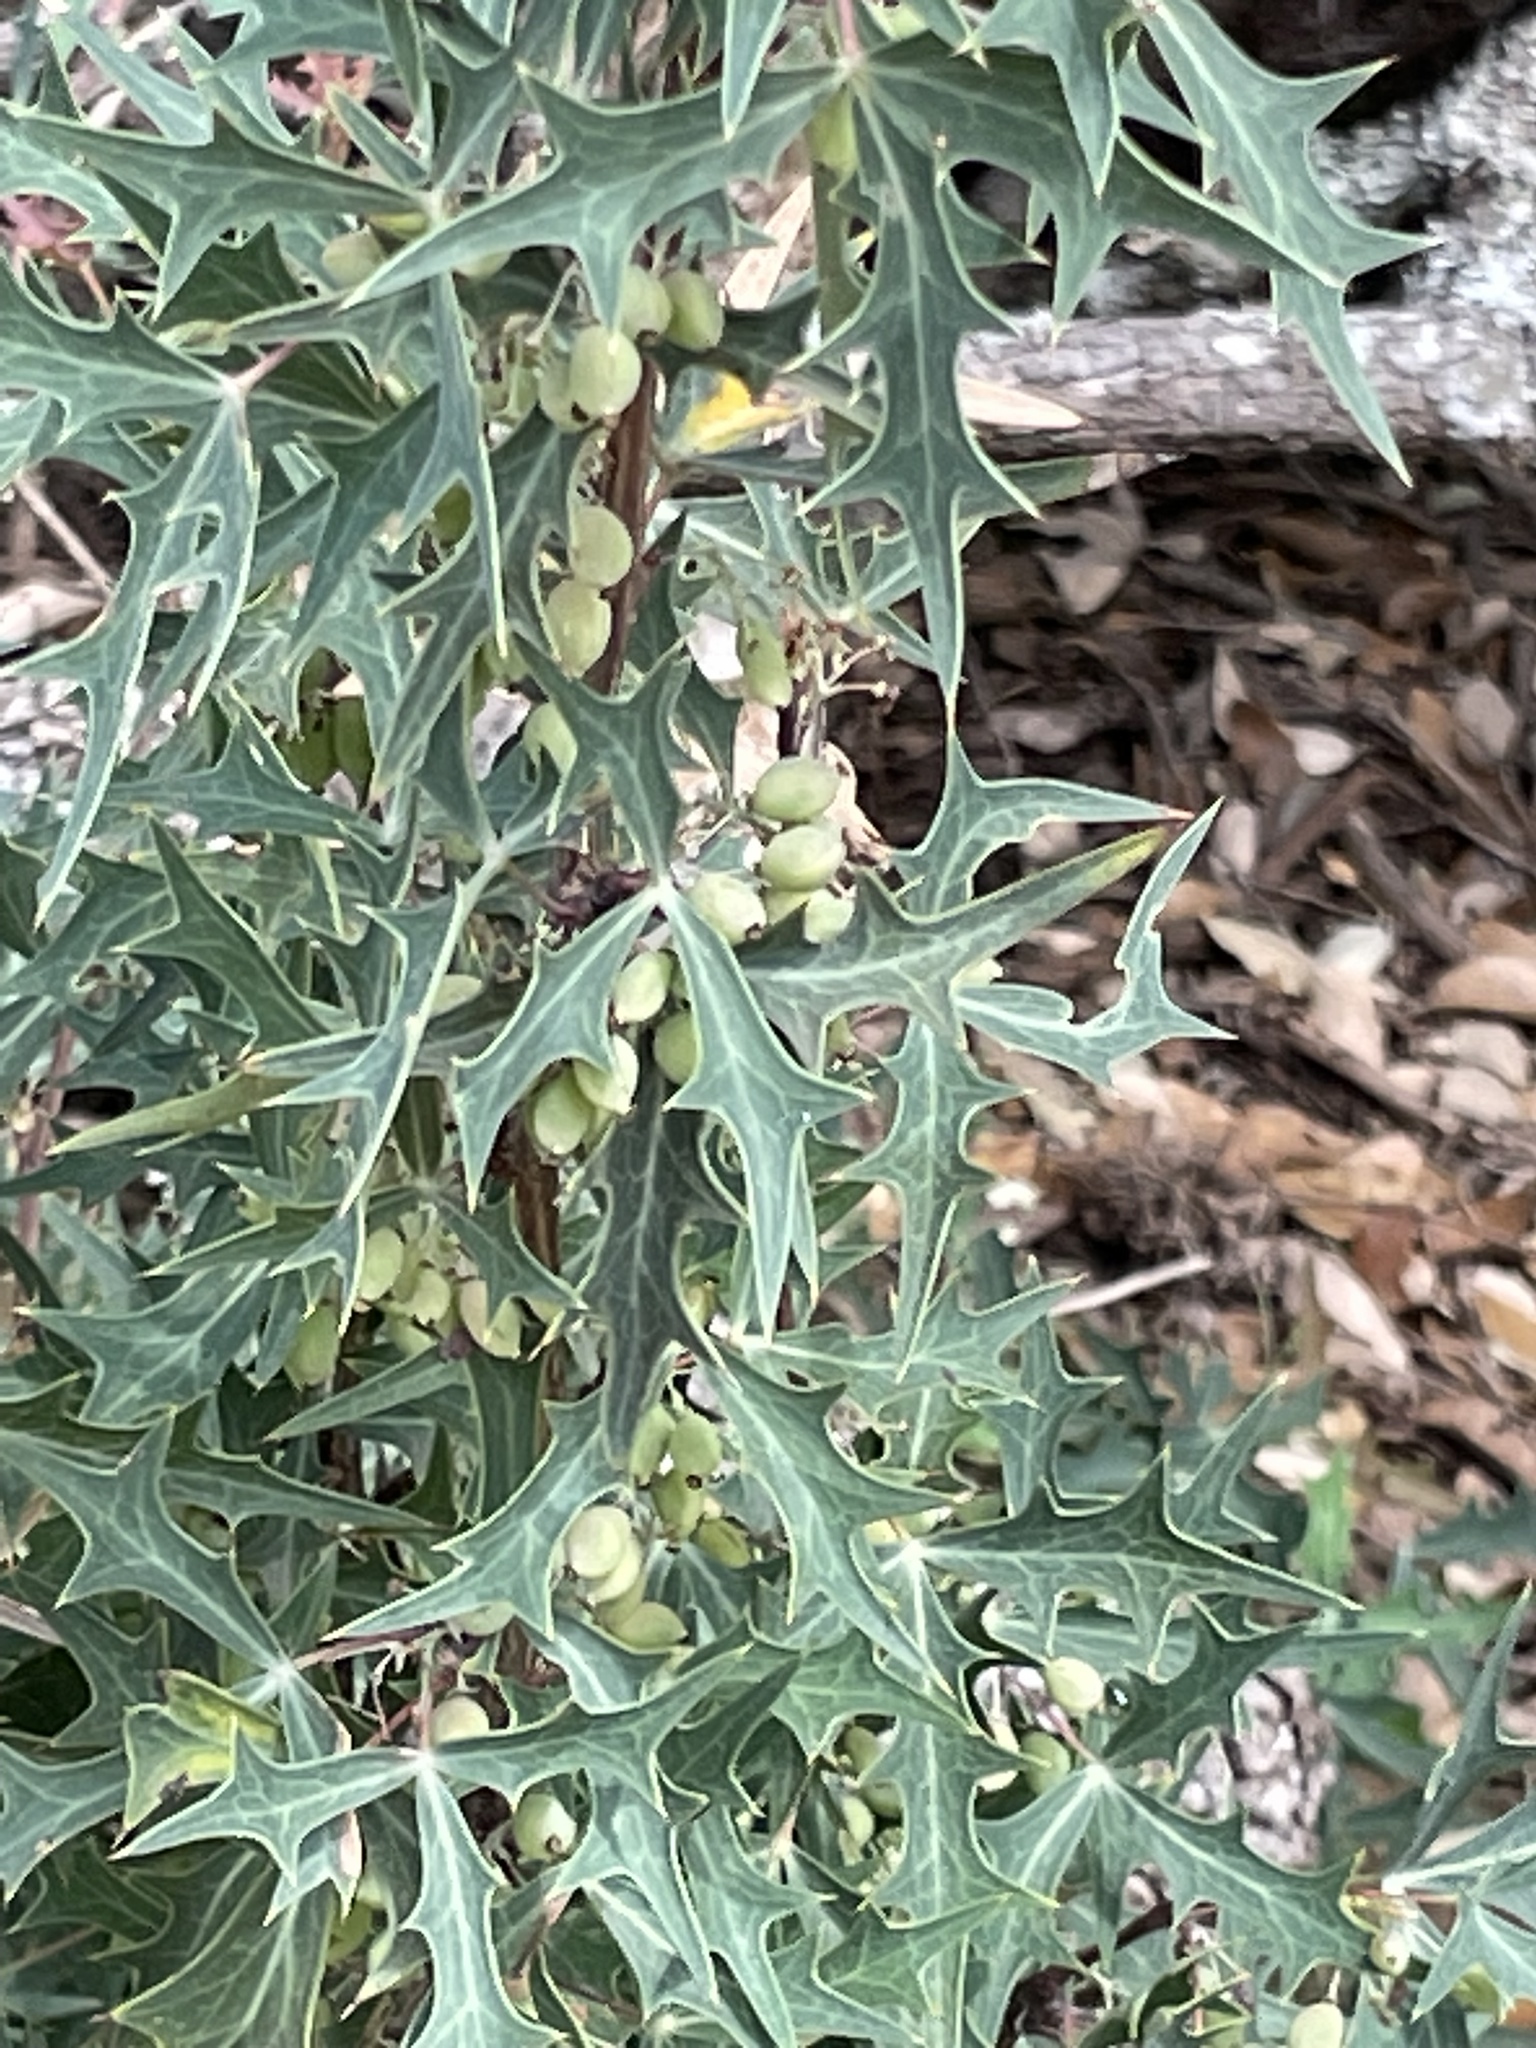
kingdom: Plantae
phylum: Tracheophyta
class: Magnoliopsida
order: Ranunculales
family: Berberidaceae
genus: Alloberberis
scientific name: Alloberberis trifoliolata
